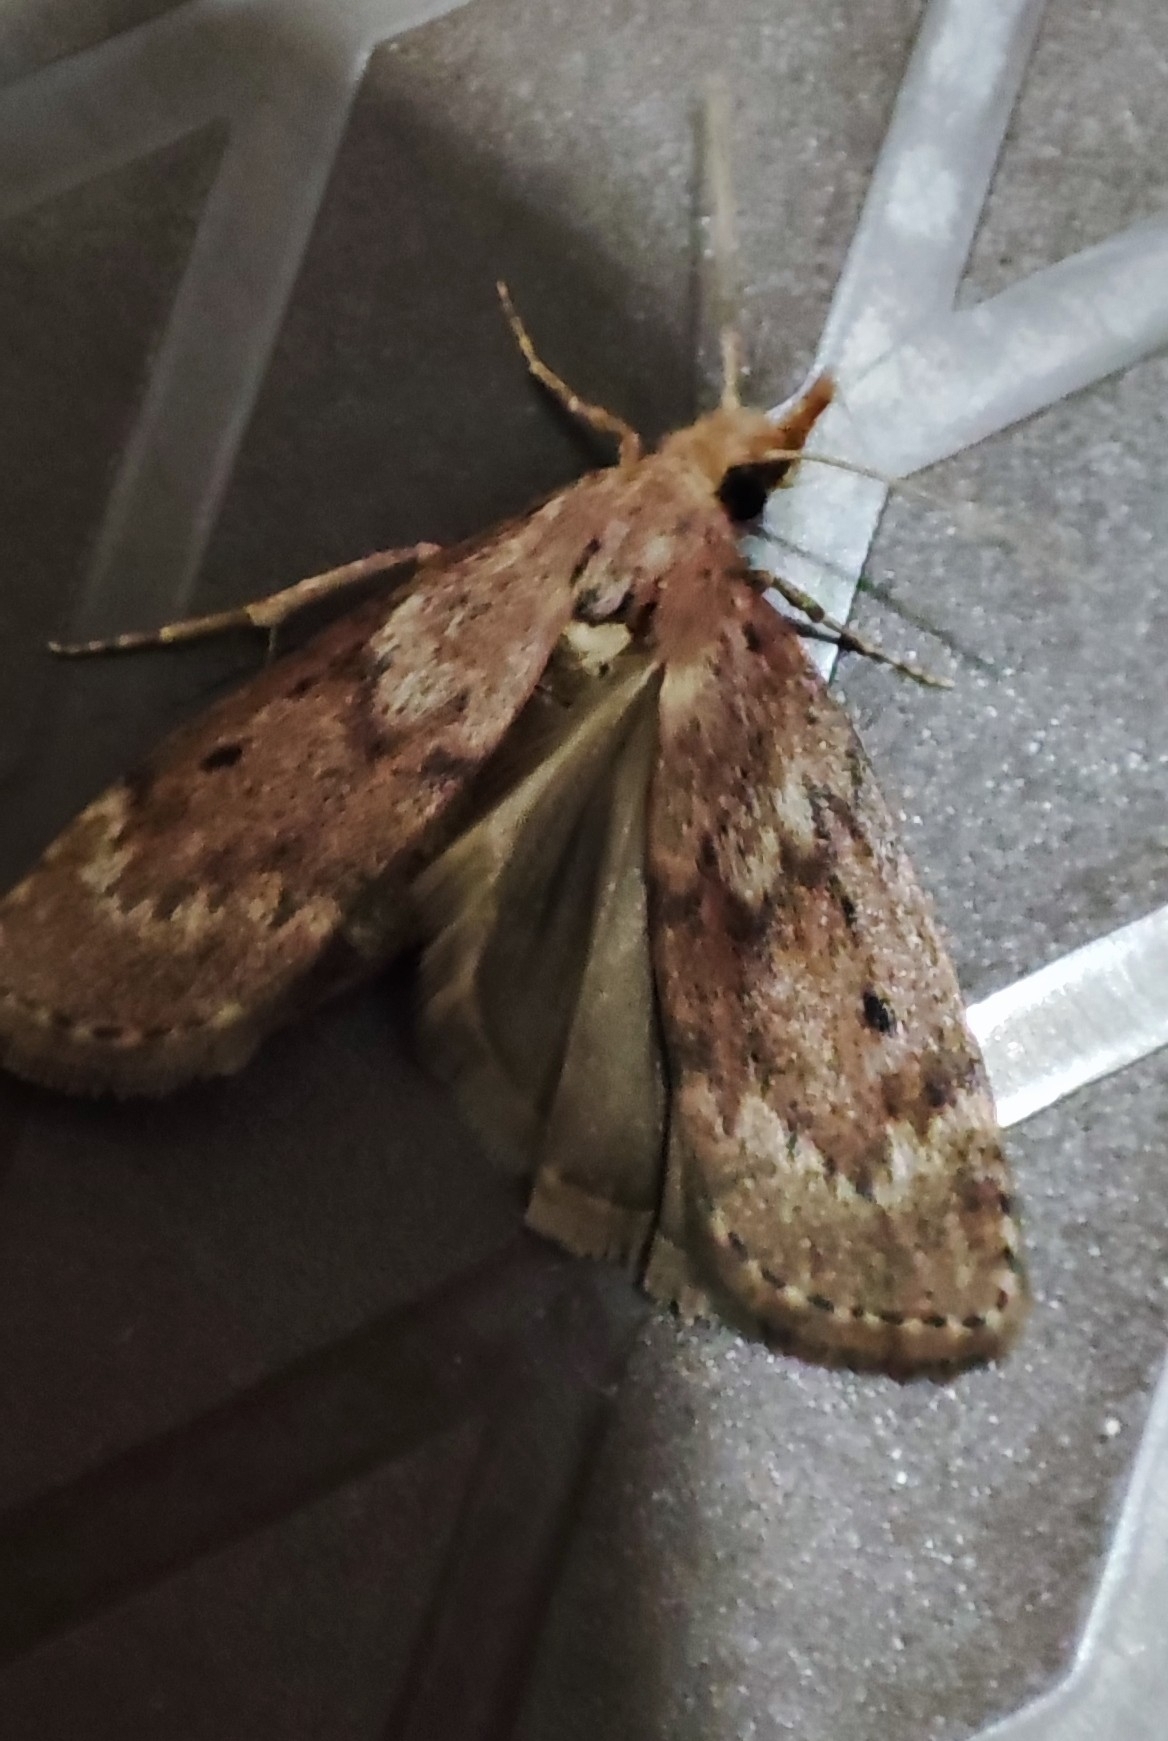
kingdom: Animalia
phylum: Arthropoda
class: Insecta
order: Lepidoptera
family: Pyralidae
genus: Aphomia
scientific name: Aphomia sociella
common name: Bee moth
